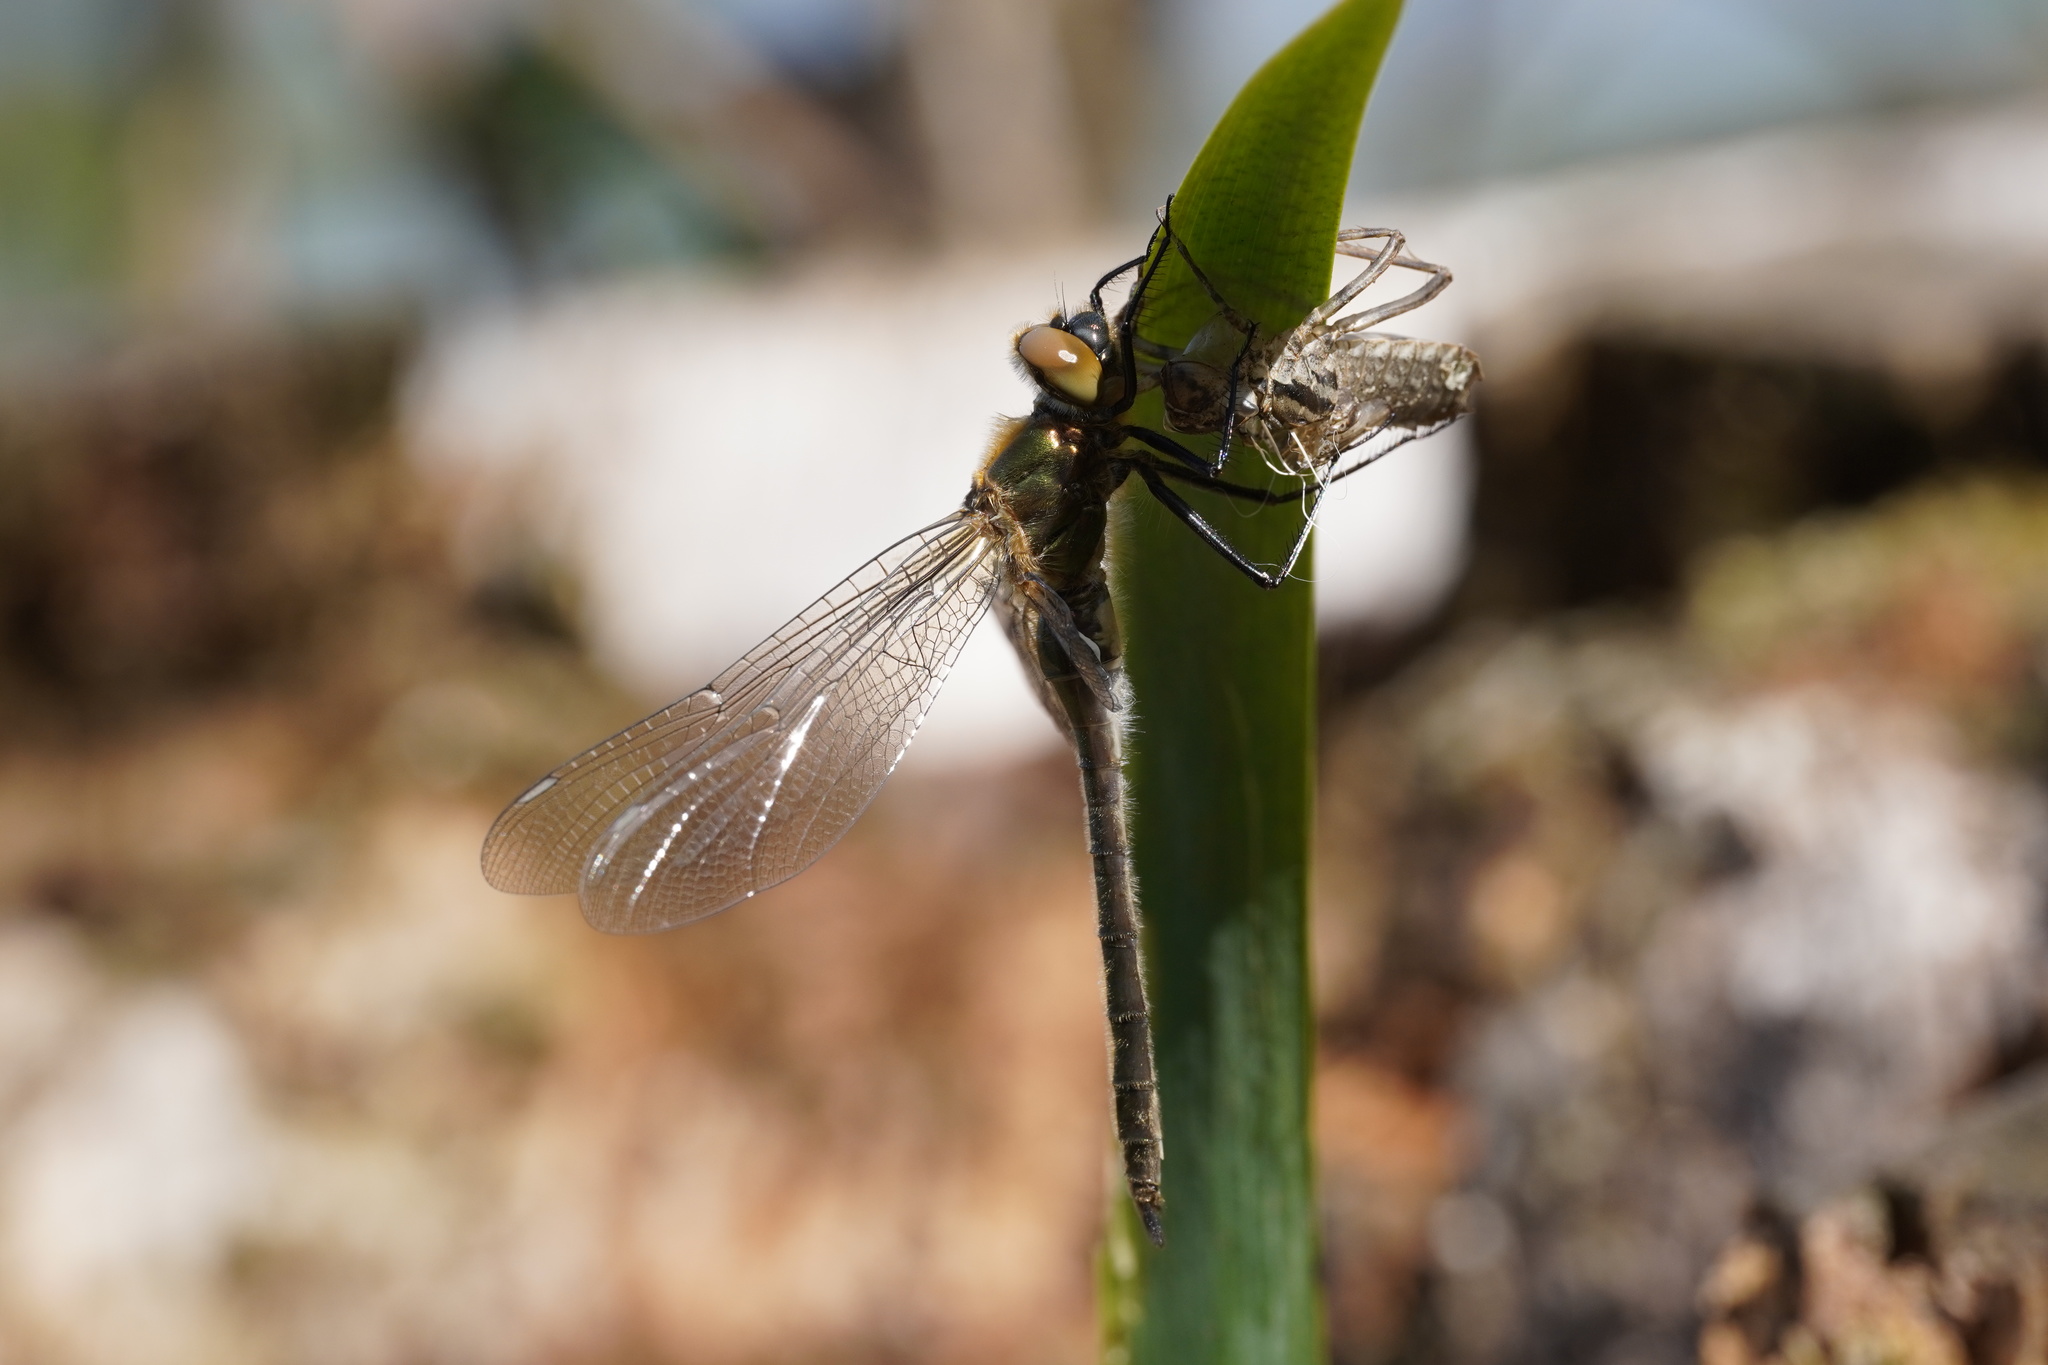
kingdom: Animalia
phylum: Arthropoda
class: Insecta
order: Odonata
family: Corduliidae
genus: Cordulia
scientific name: Cordulia aenea
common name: Downy emerald
